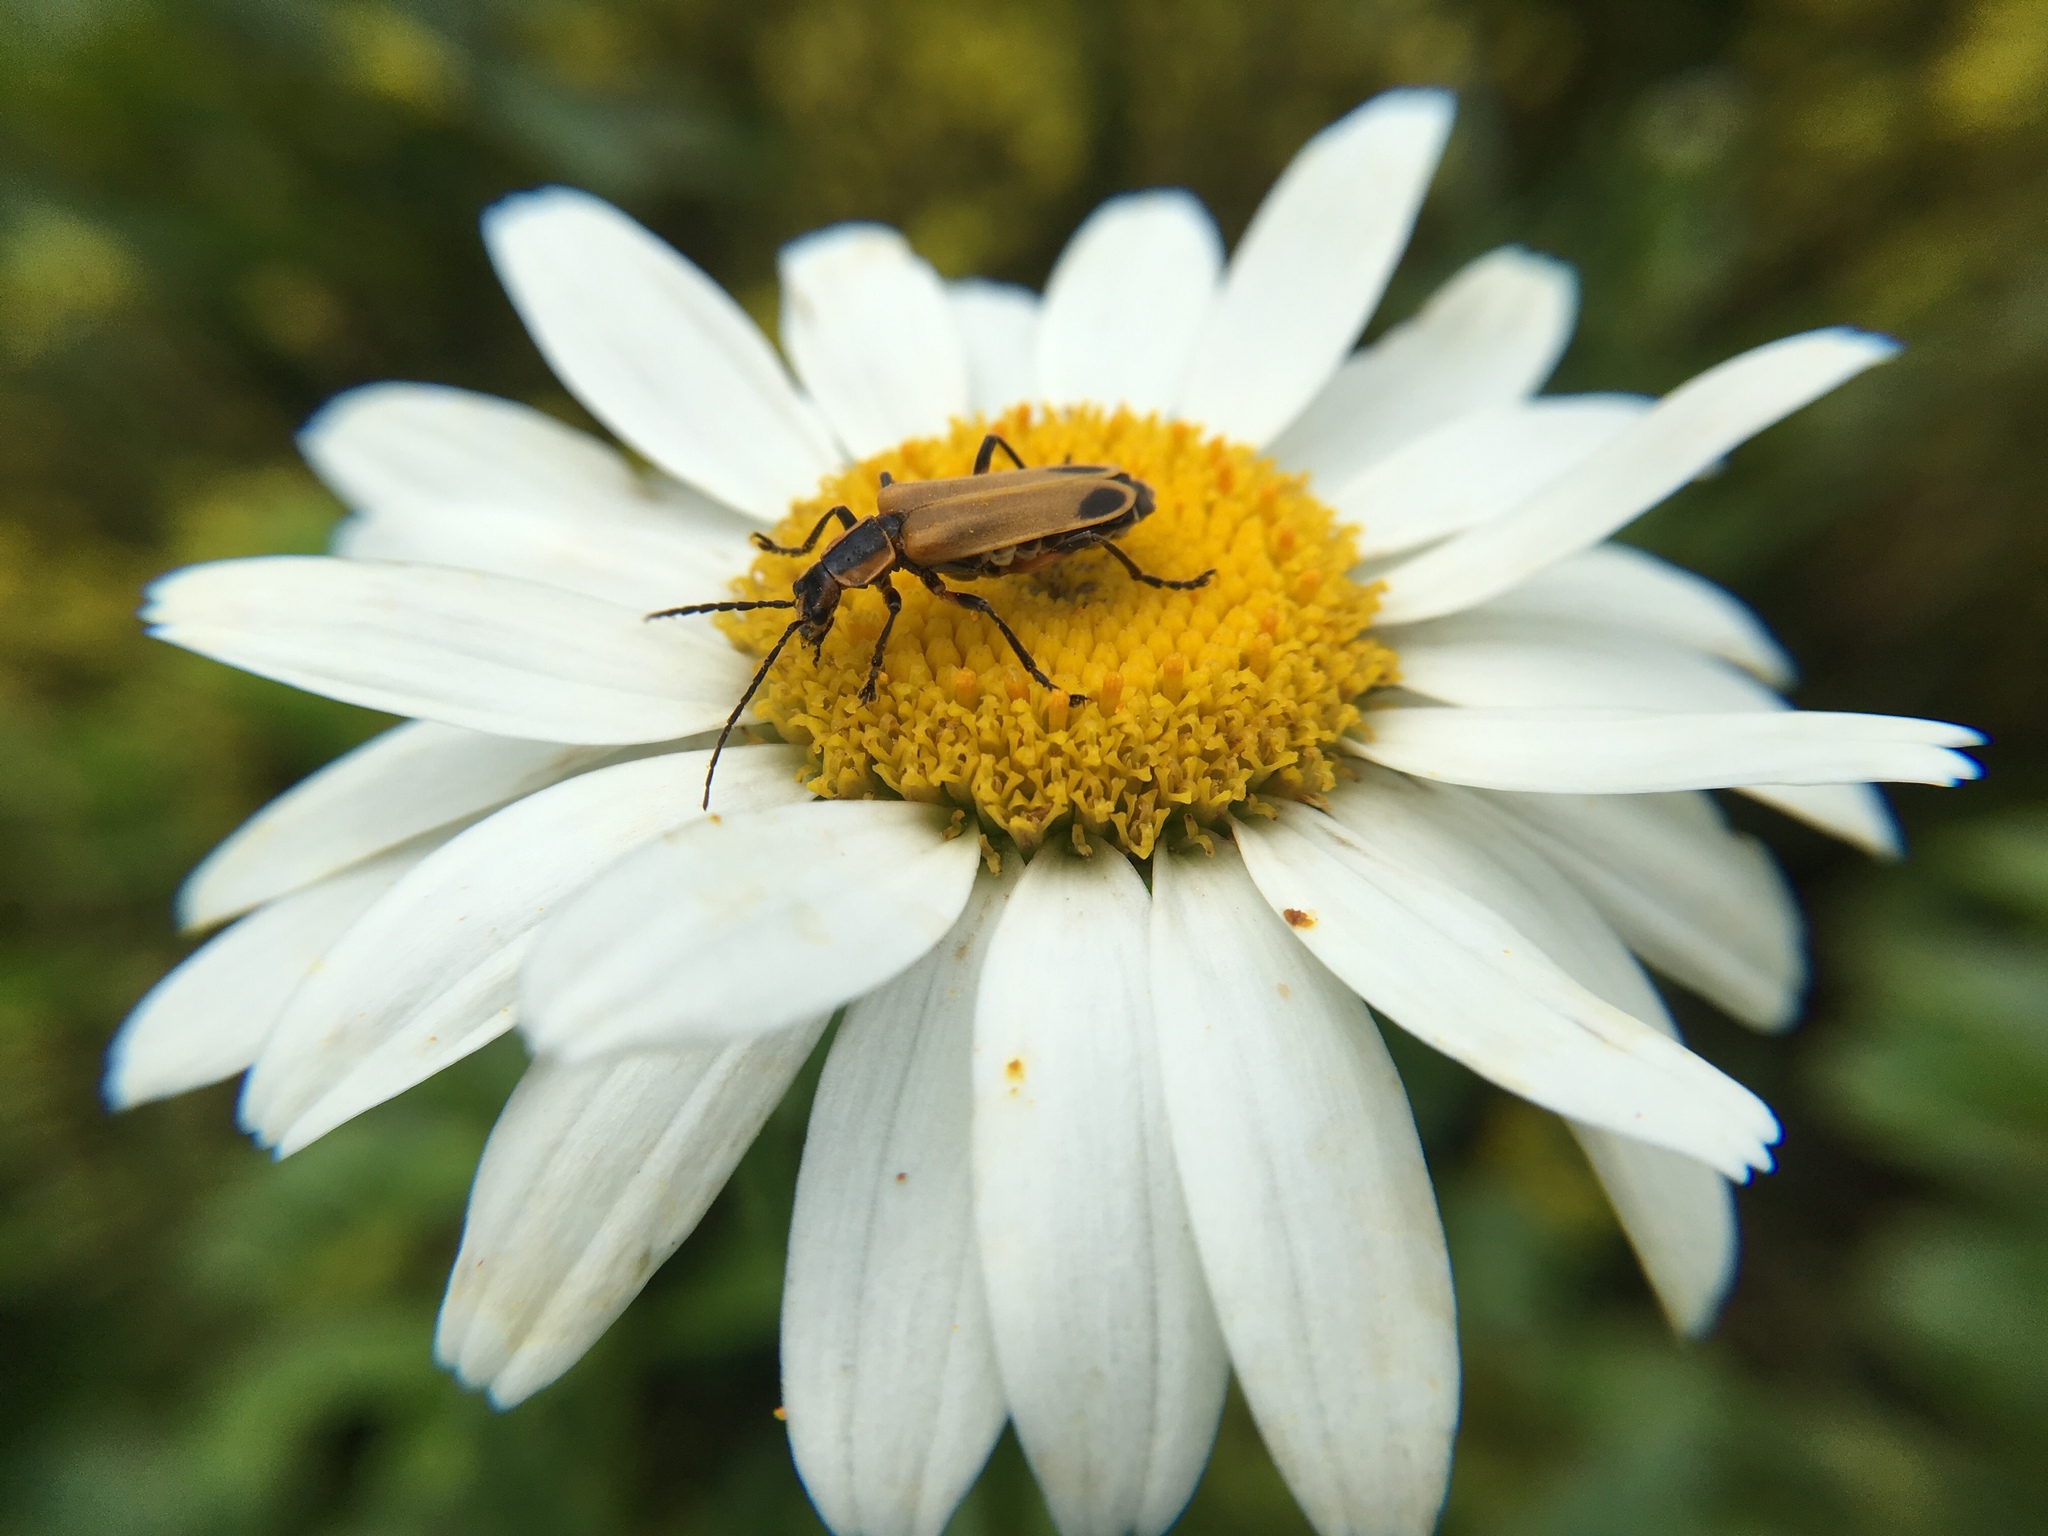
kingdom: Animalia
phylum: Arthropoda
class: Insecta
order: Coleoptera
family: Cantharidae
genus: Chauliognathus
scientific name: Chauliognathus marginatus
